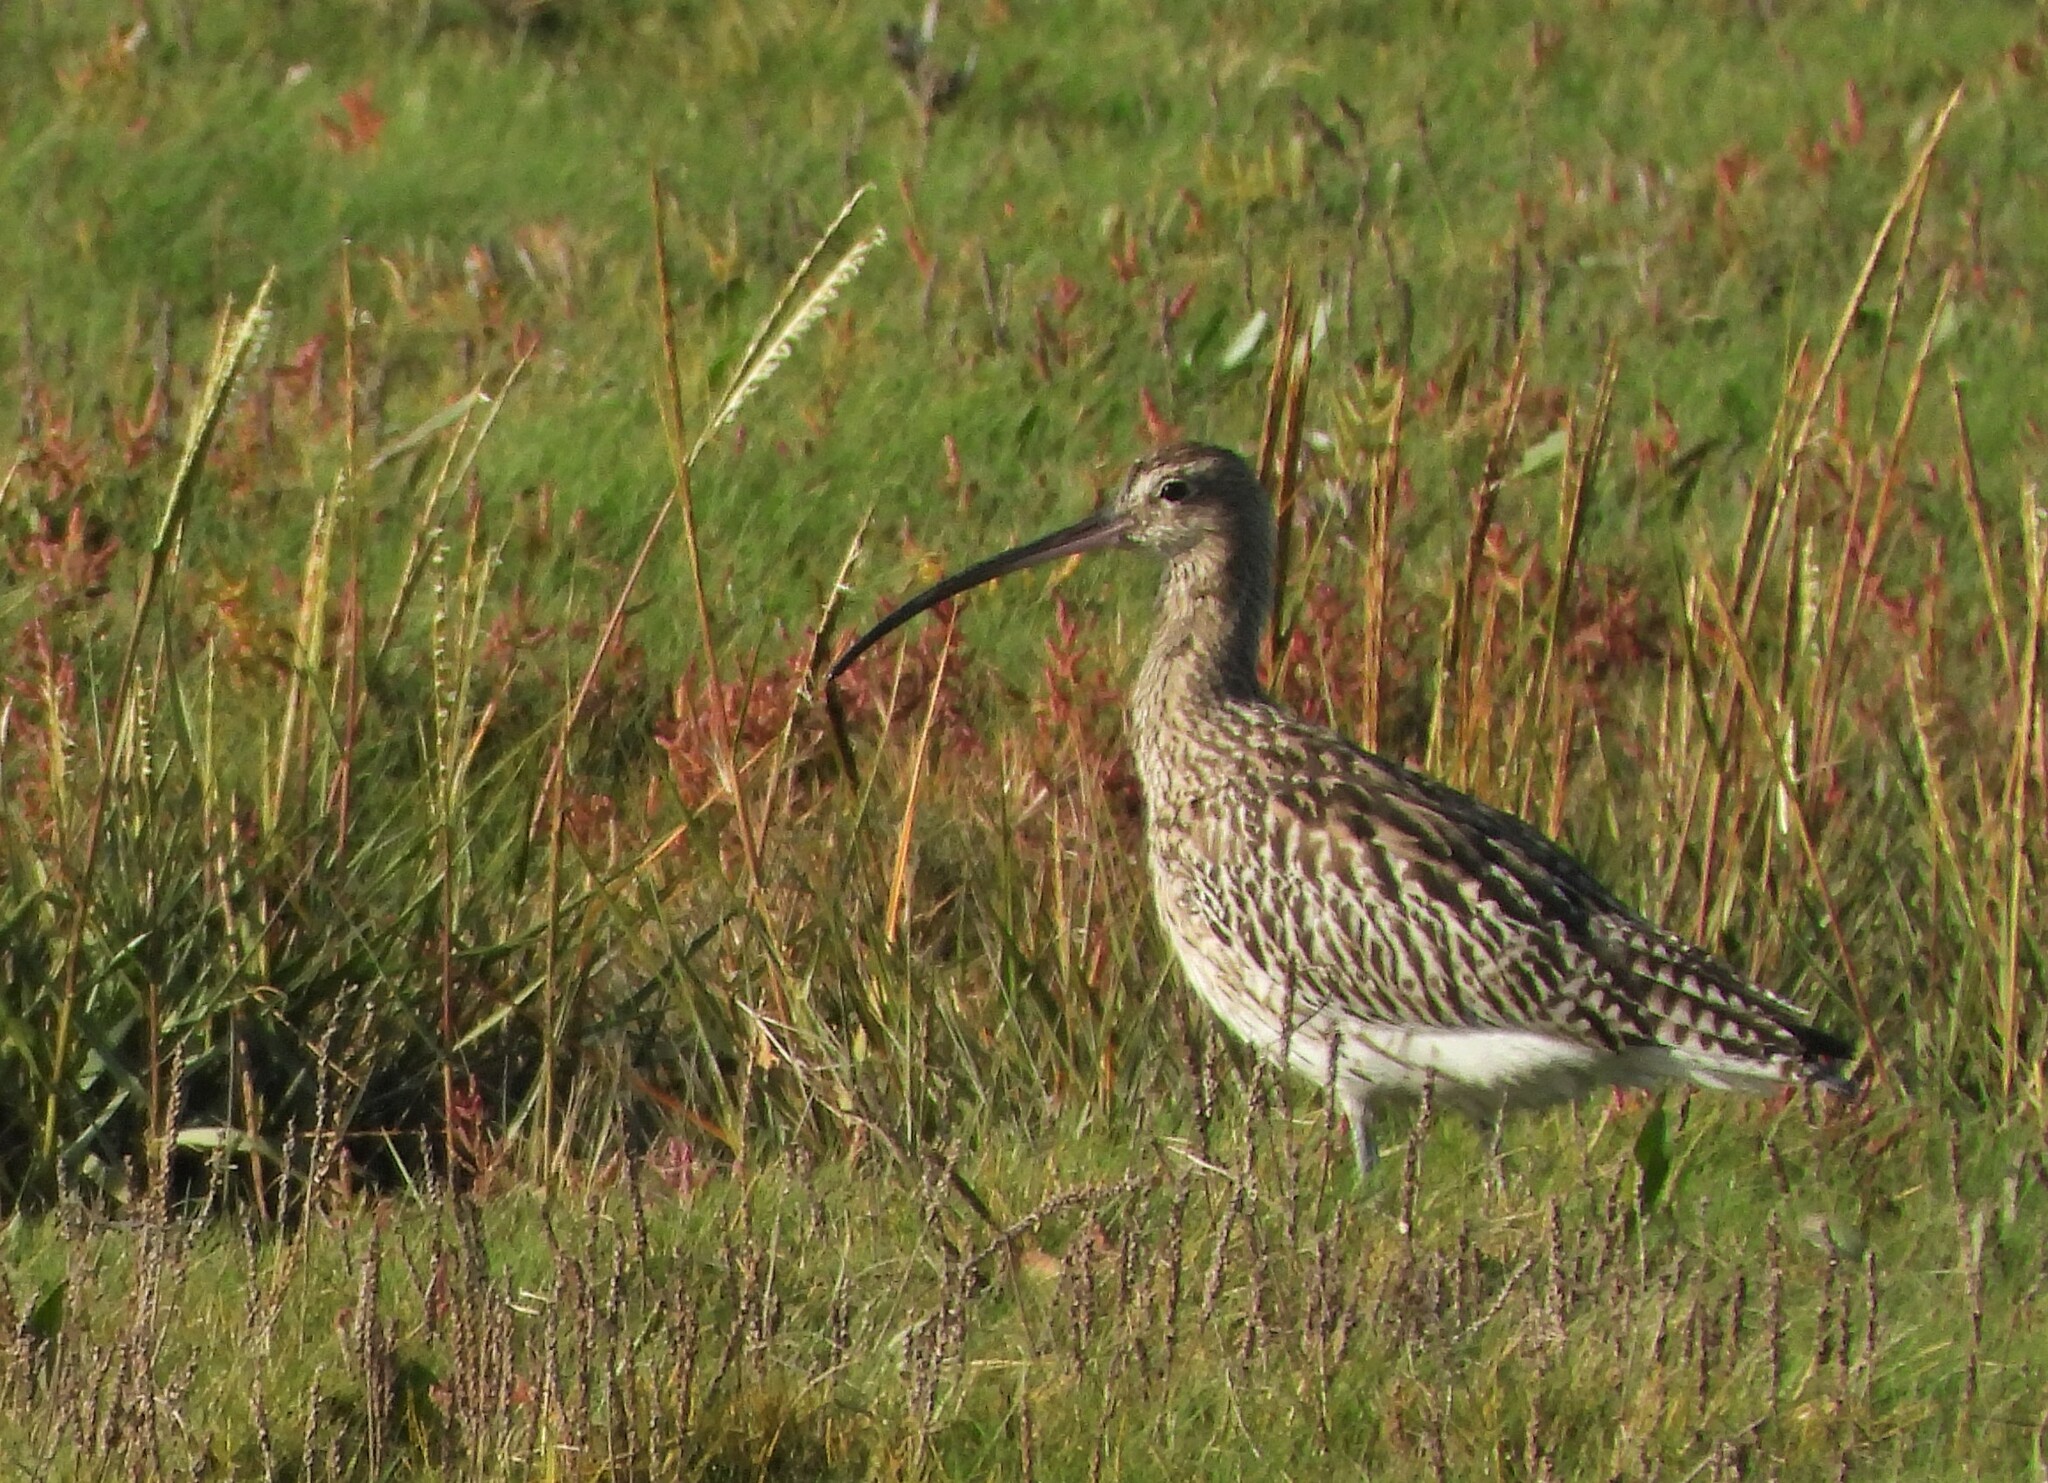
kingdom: Animalia
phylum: Chordata
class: Aves
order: Charadriiformes
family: Scolopacidae
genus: Numenius
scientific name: Numenius arquata
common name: Eurasian curlew
